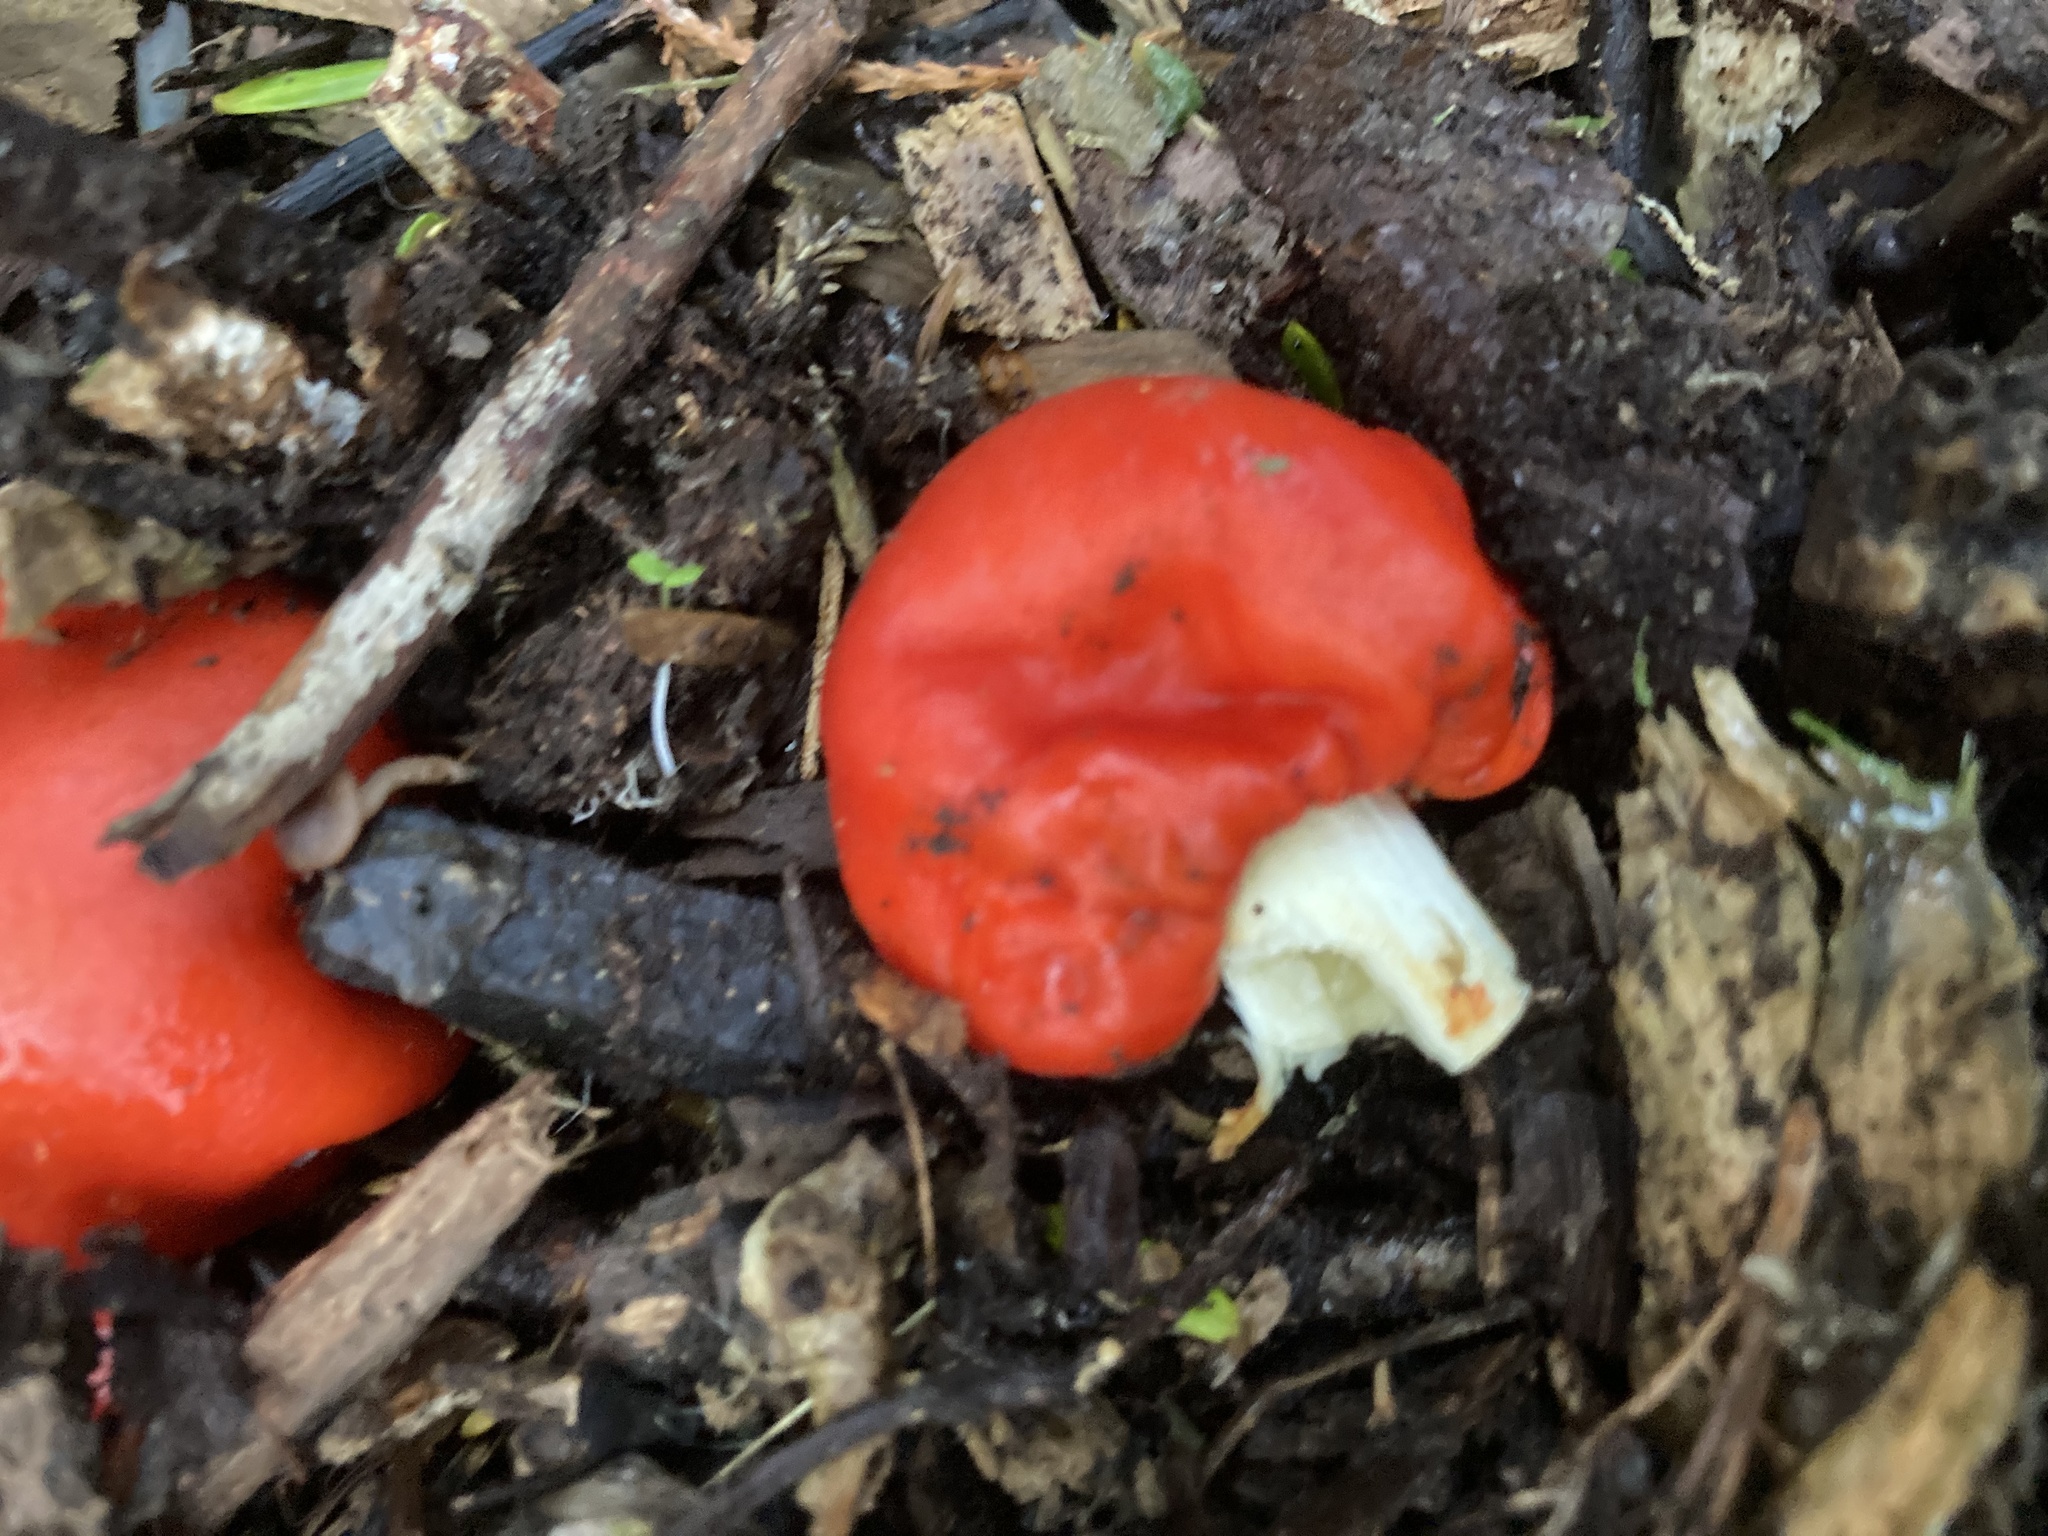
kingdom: Fungi
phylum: Basidiomycota
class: Agaricomycetes
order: Agaricales
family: Strophariaceae
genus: Leratiomyces
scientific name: Leratiomyces erythrocephalus
